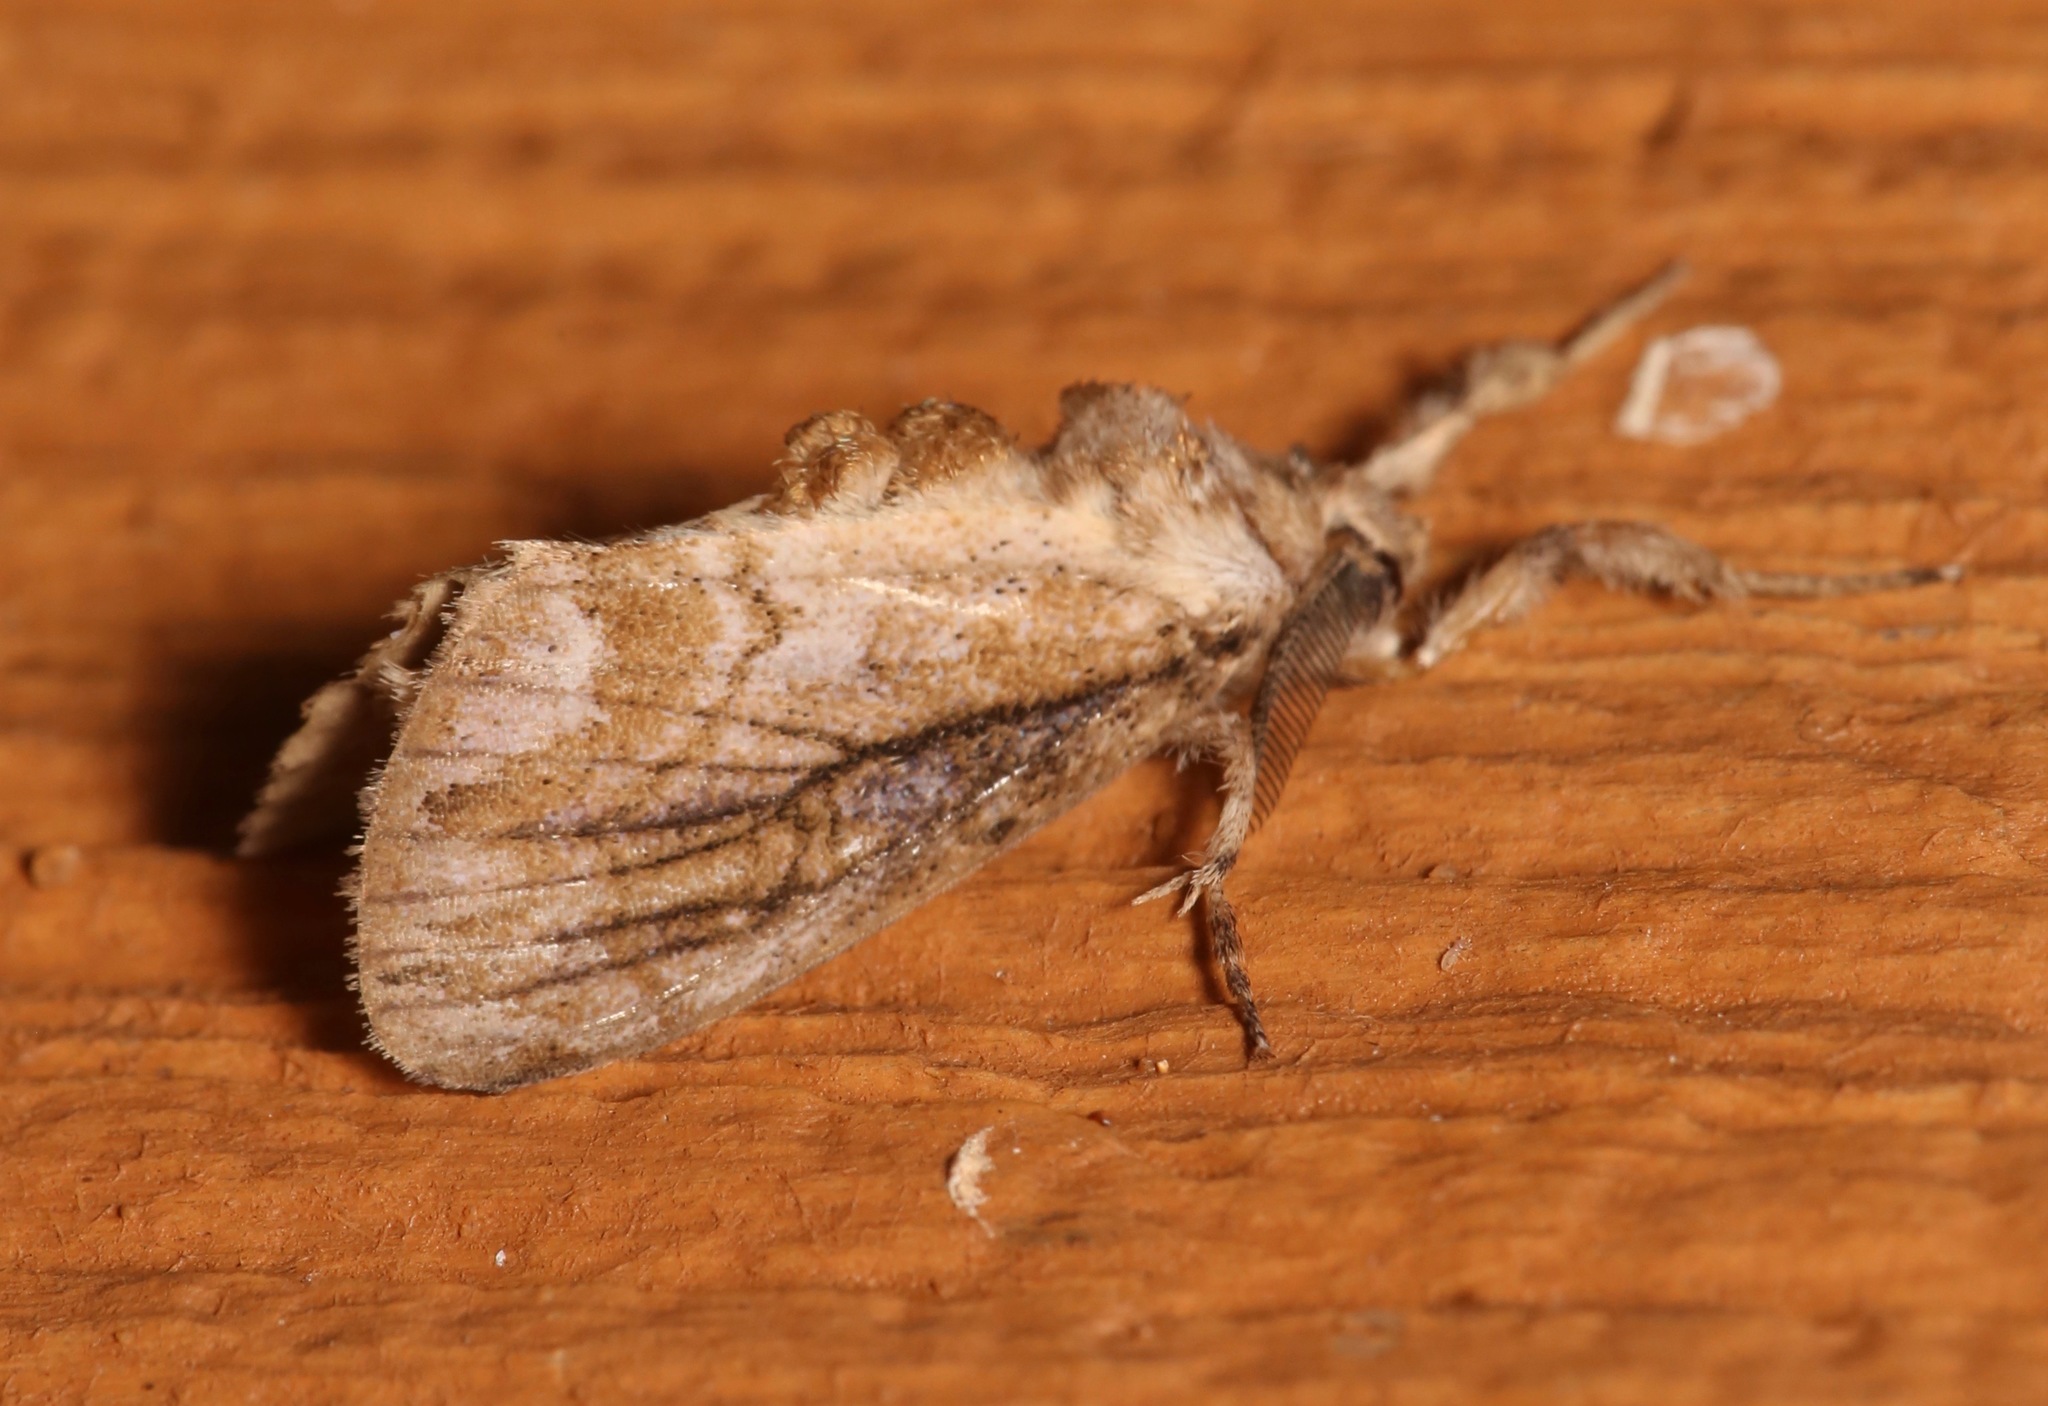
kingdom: Animalia
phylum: Arthropoda
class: Insecta
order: Lepidoptera
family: Erebidae
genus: Dasychira
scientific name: Dasychira atrivenosa
